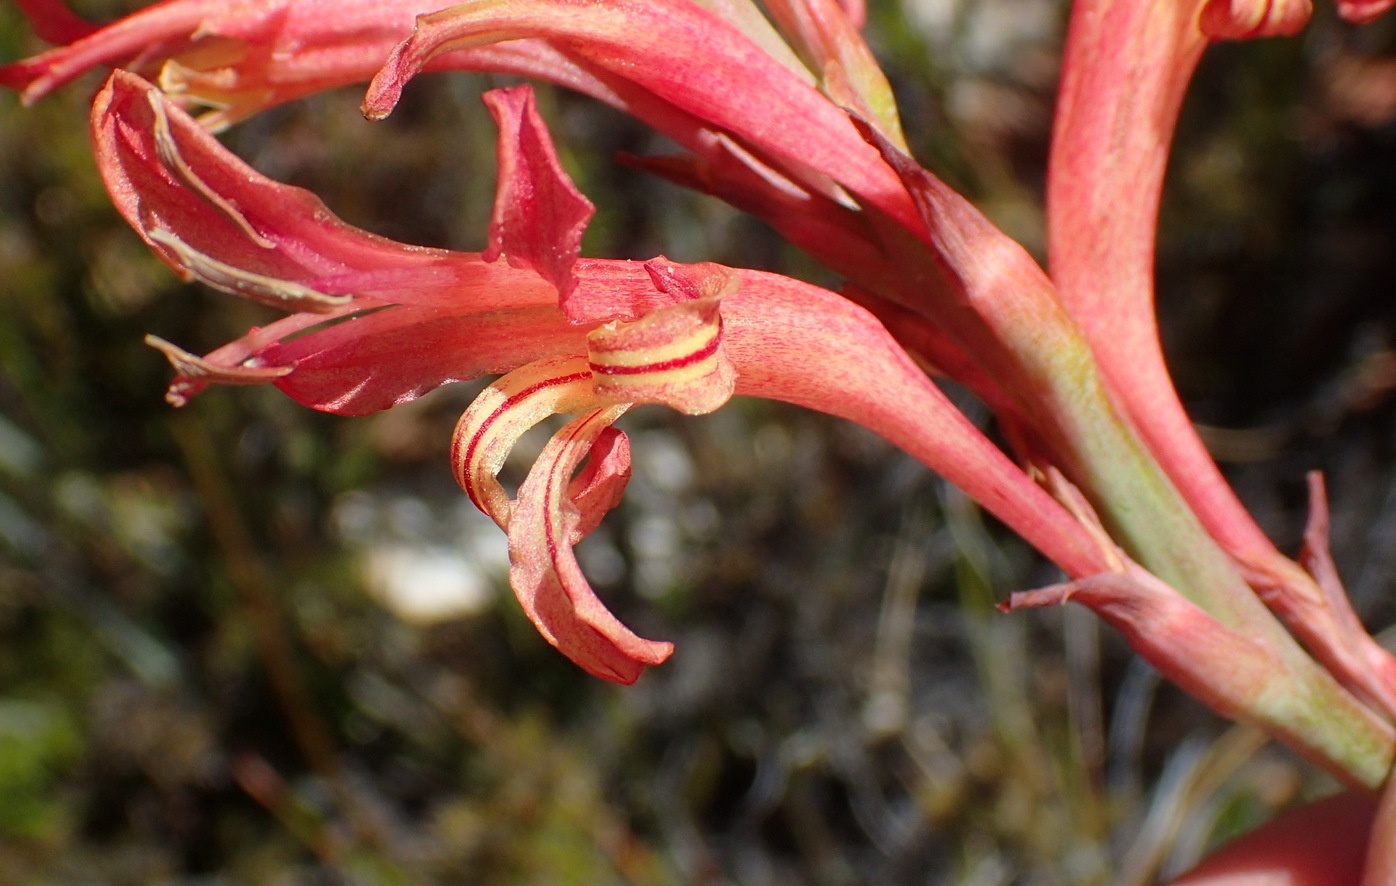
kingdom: Plantae
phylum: Tracheophyta
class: Liliopsida
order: Asparagales
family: Iridaceae
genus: Tritoniopsis
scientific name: Tritoniopsis antholyza
